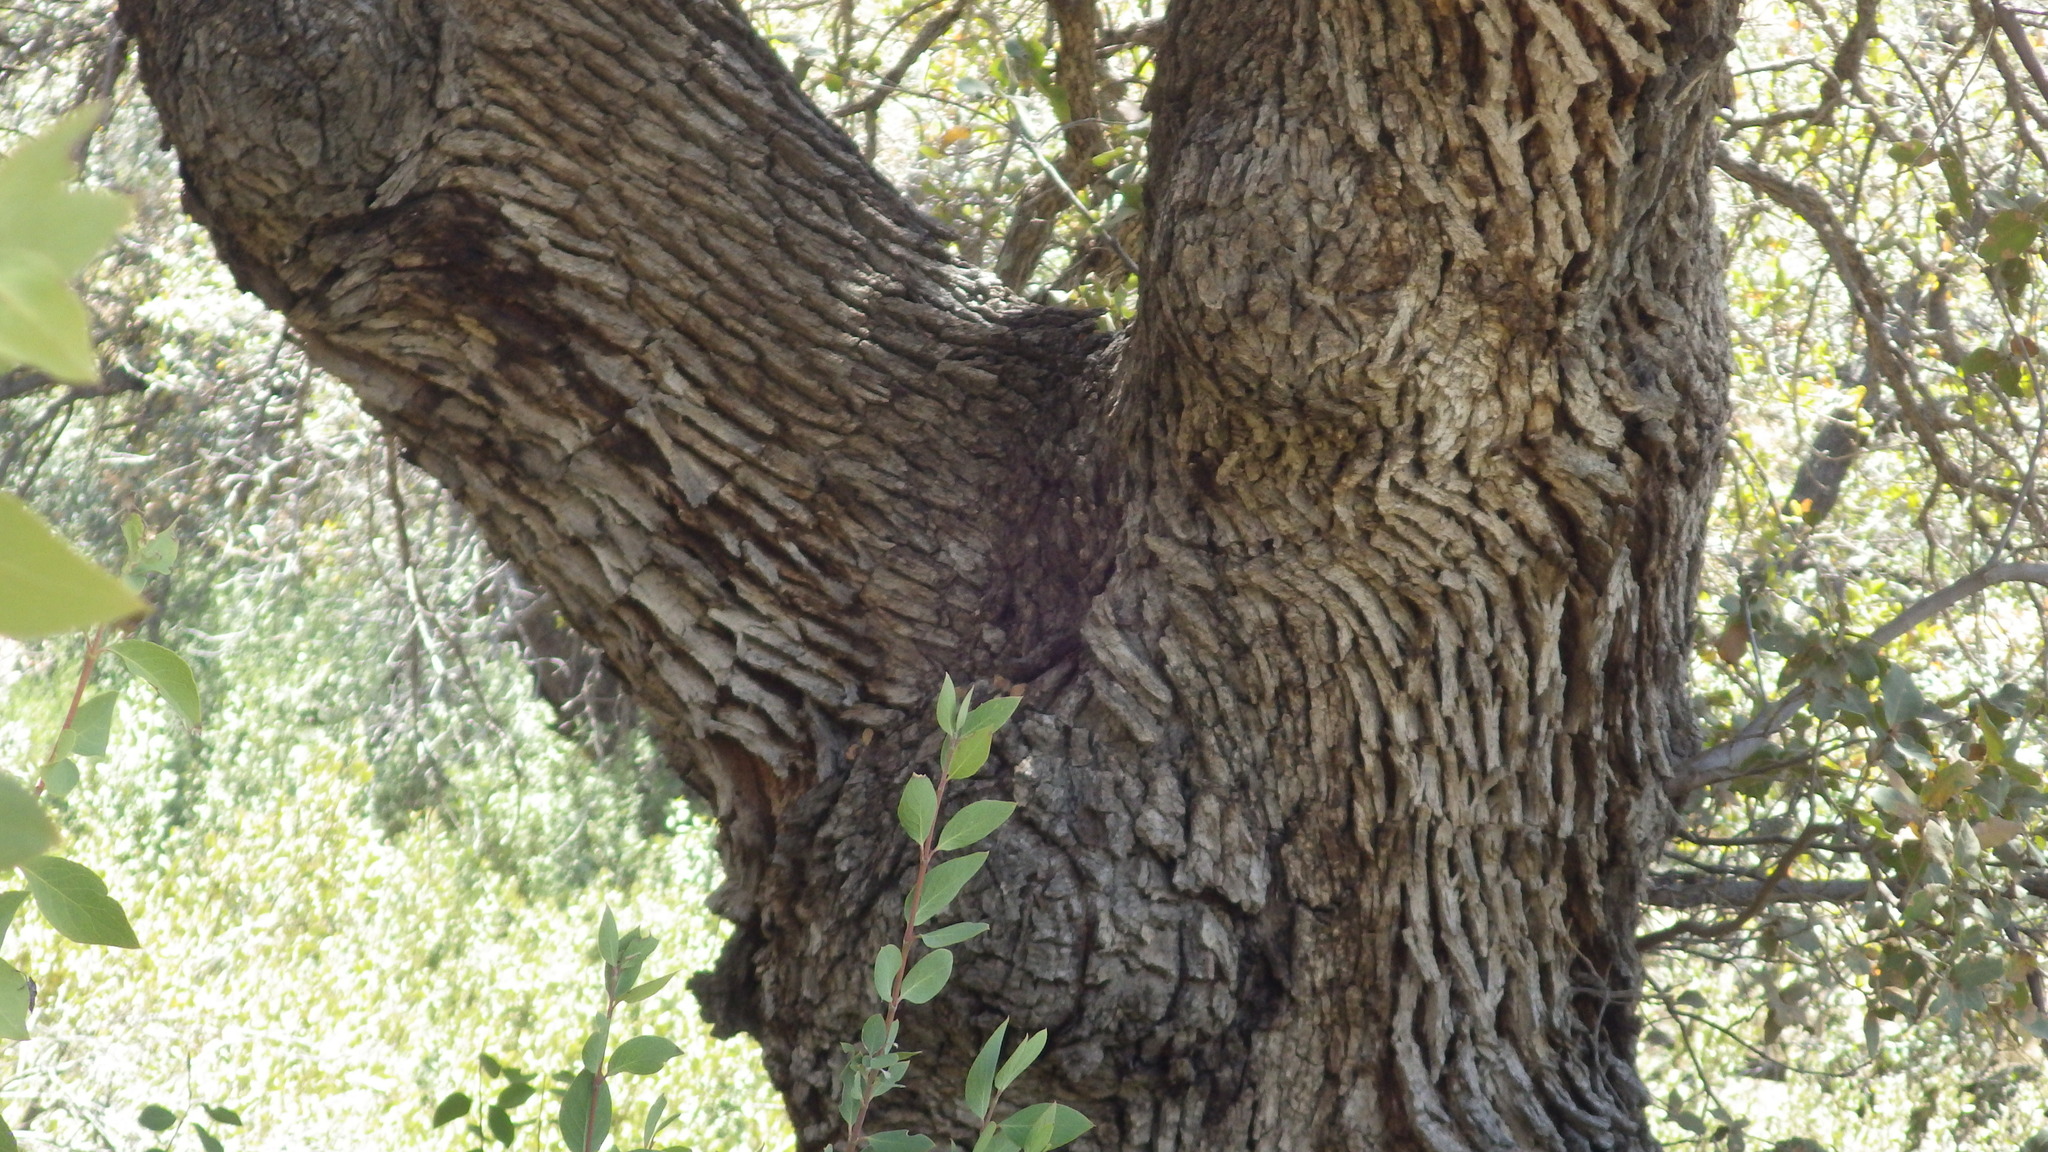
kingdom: Plantae
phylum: Tracheophyta
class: Magnoliopsida
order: Fagales
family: Fagaceae
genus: Quercus
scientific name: Quercus arizonica
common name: Arizona white oak
